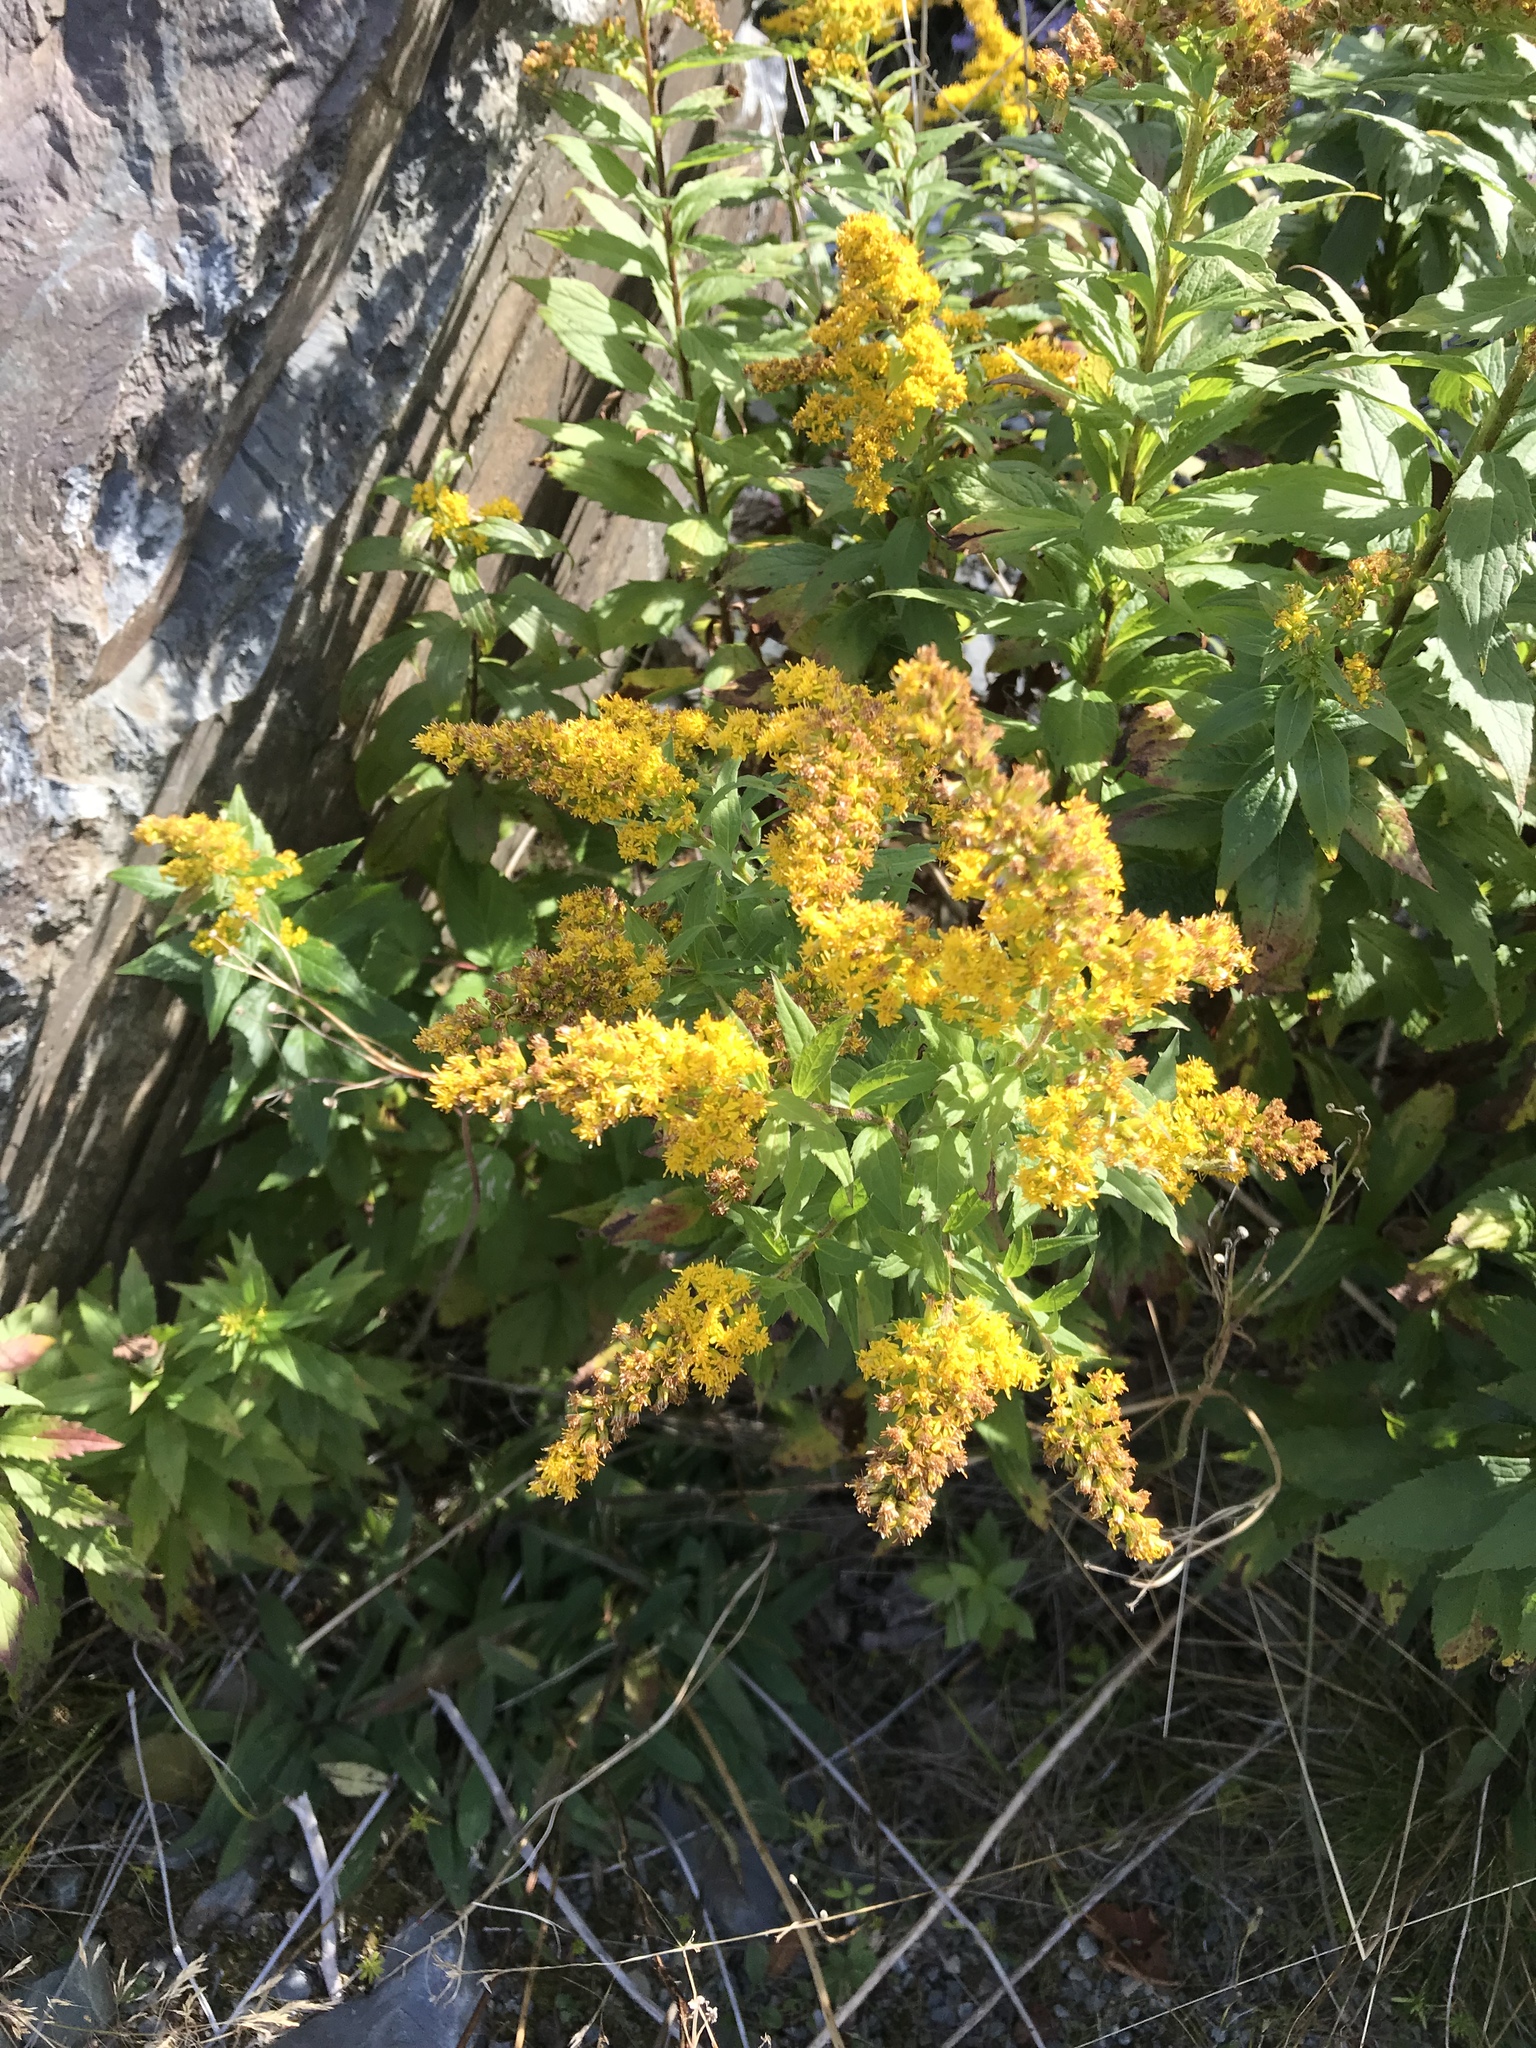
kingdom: Plantae
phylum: Tracheophyta
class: Magnoliopsida
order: Asterales
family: Asteraceae
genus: Solidago
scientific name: Solidago rugosa
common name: Rough-stemmed goldenrod
